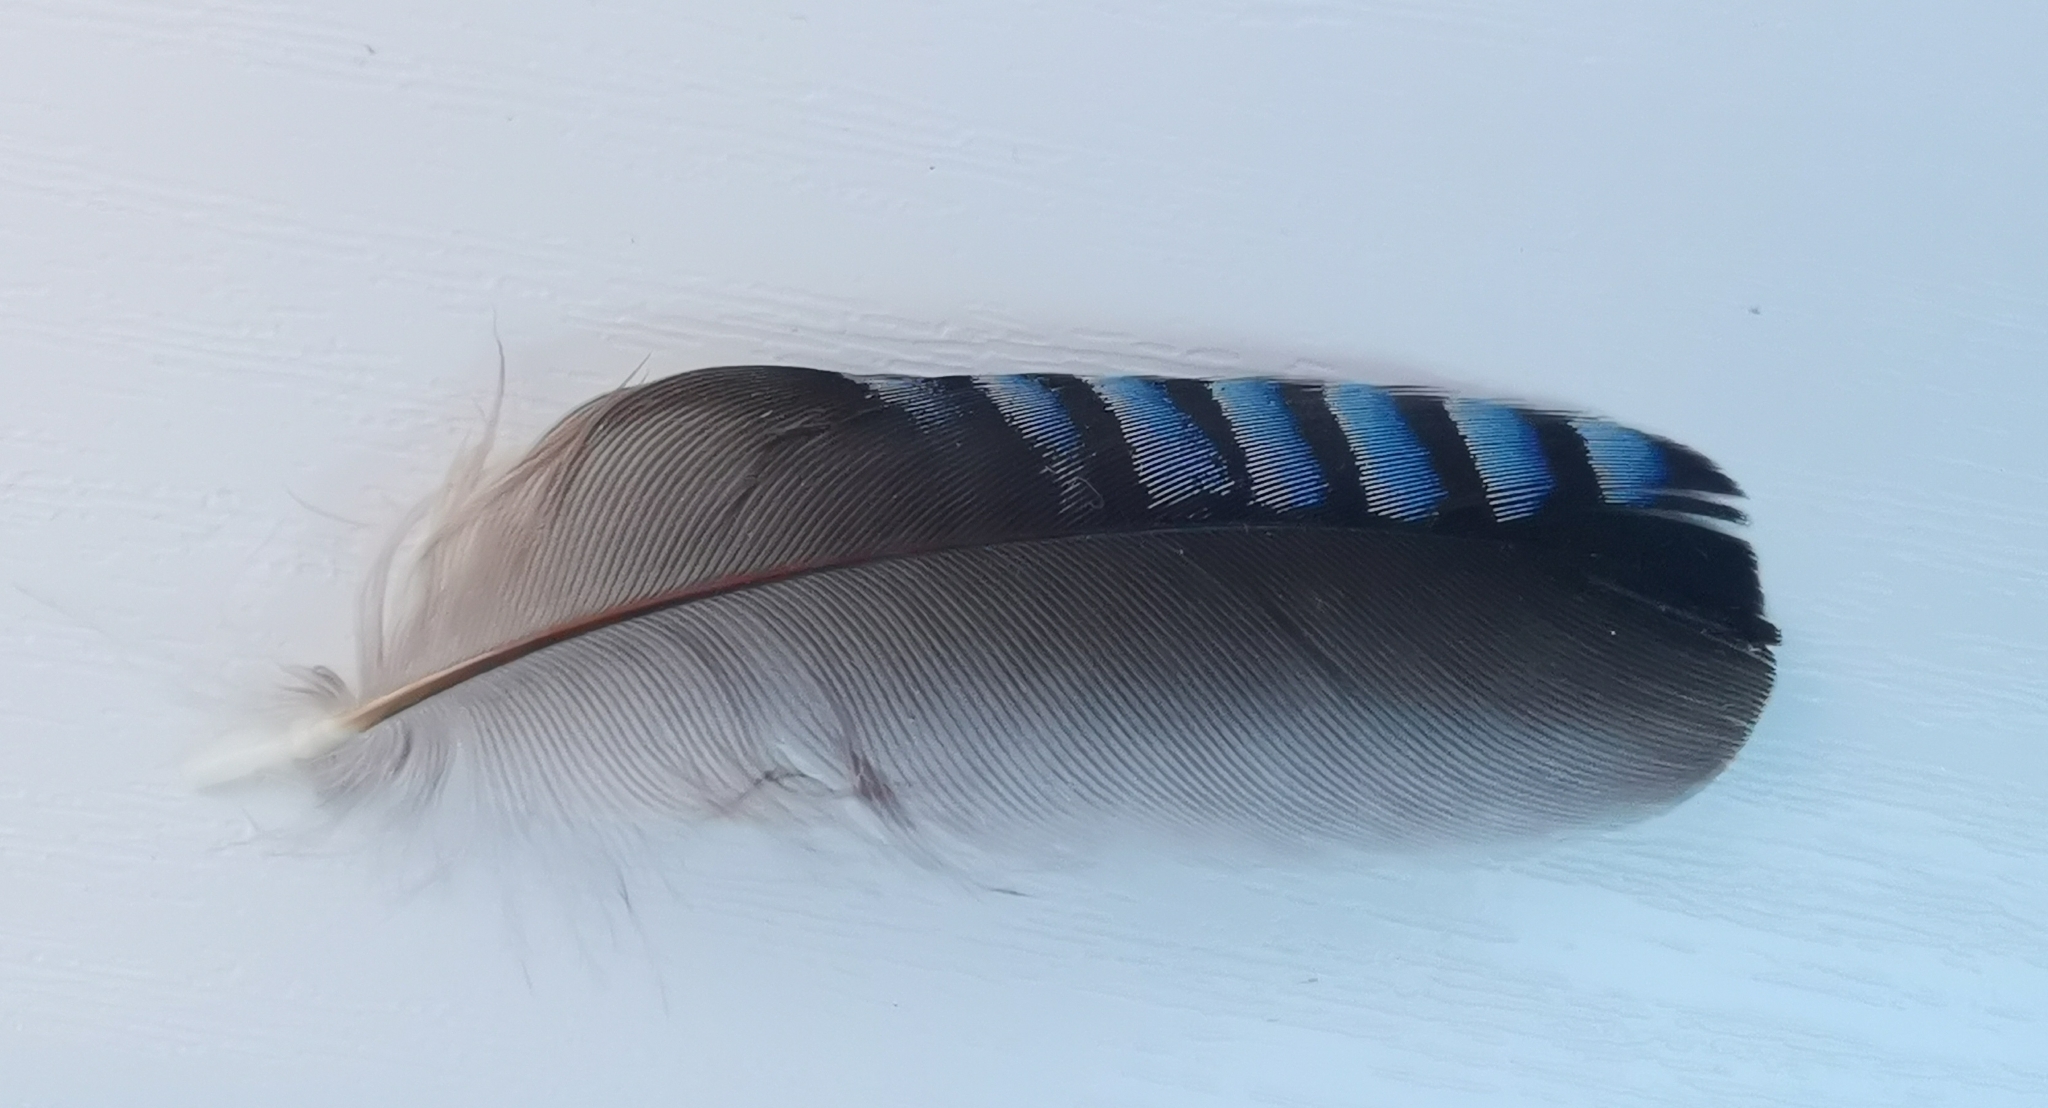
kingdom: Animalia
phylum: Chordata
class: Aves
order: Passeriformes
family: Corvidae
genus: Garrulus
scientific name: Garrulus glandarius
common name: Eurasian jay
